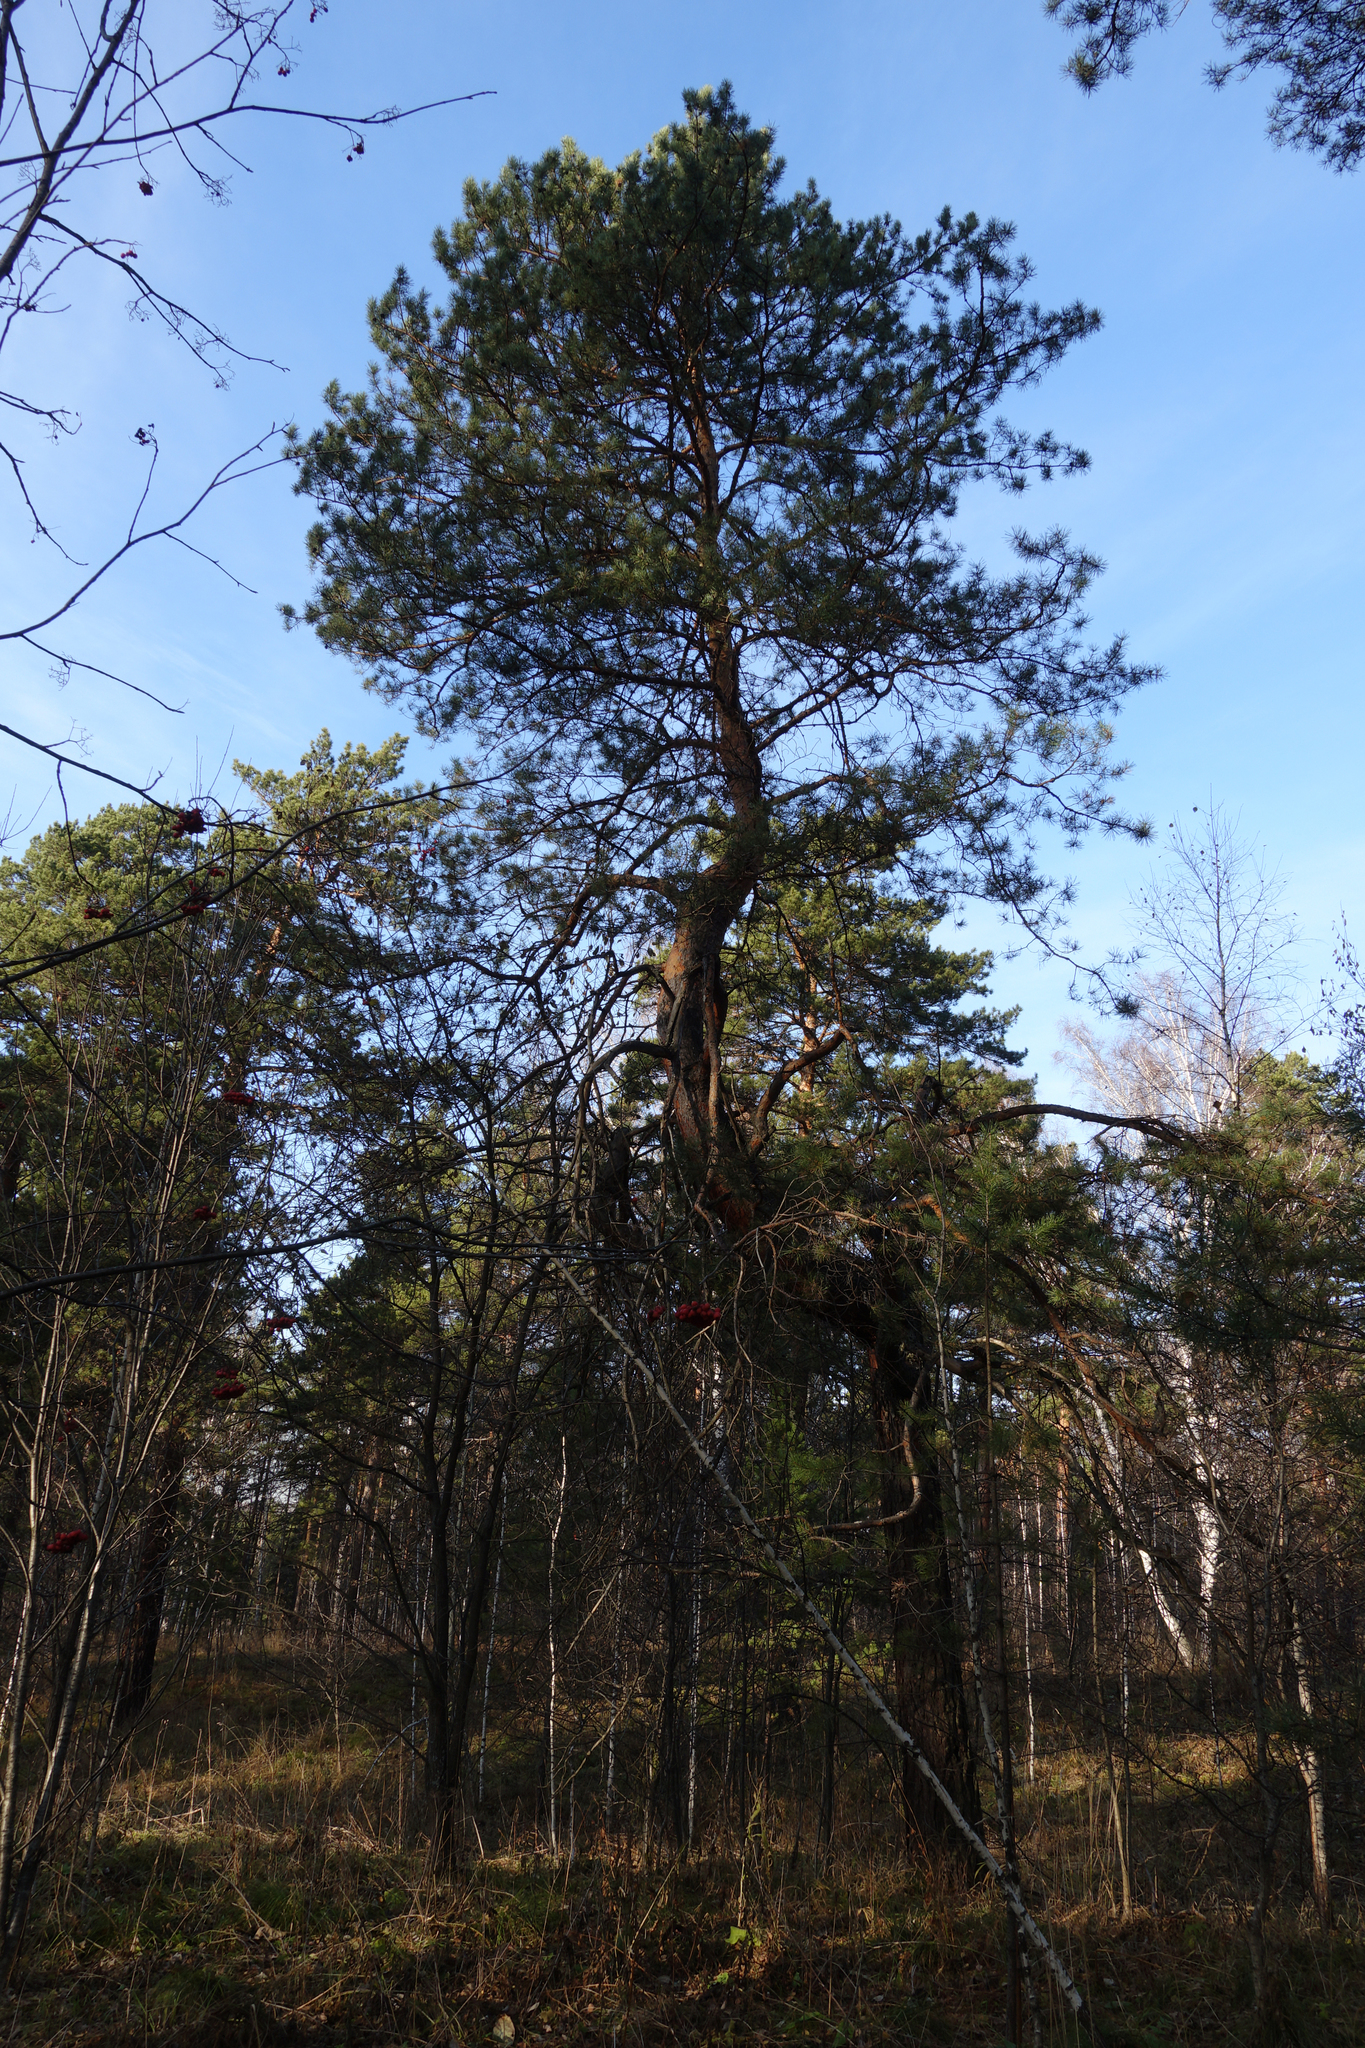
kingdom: Plantae
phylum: Tracheophyta
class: Pinopsida
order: Pinales
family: Pinaceae
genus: Pinus
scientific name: Pinus sylvestris
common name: Scots pine
